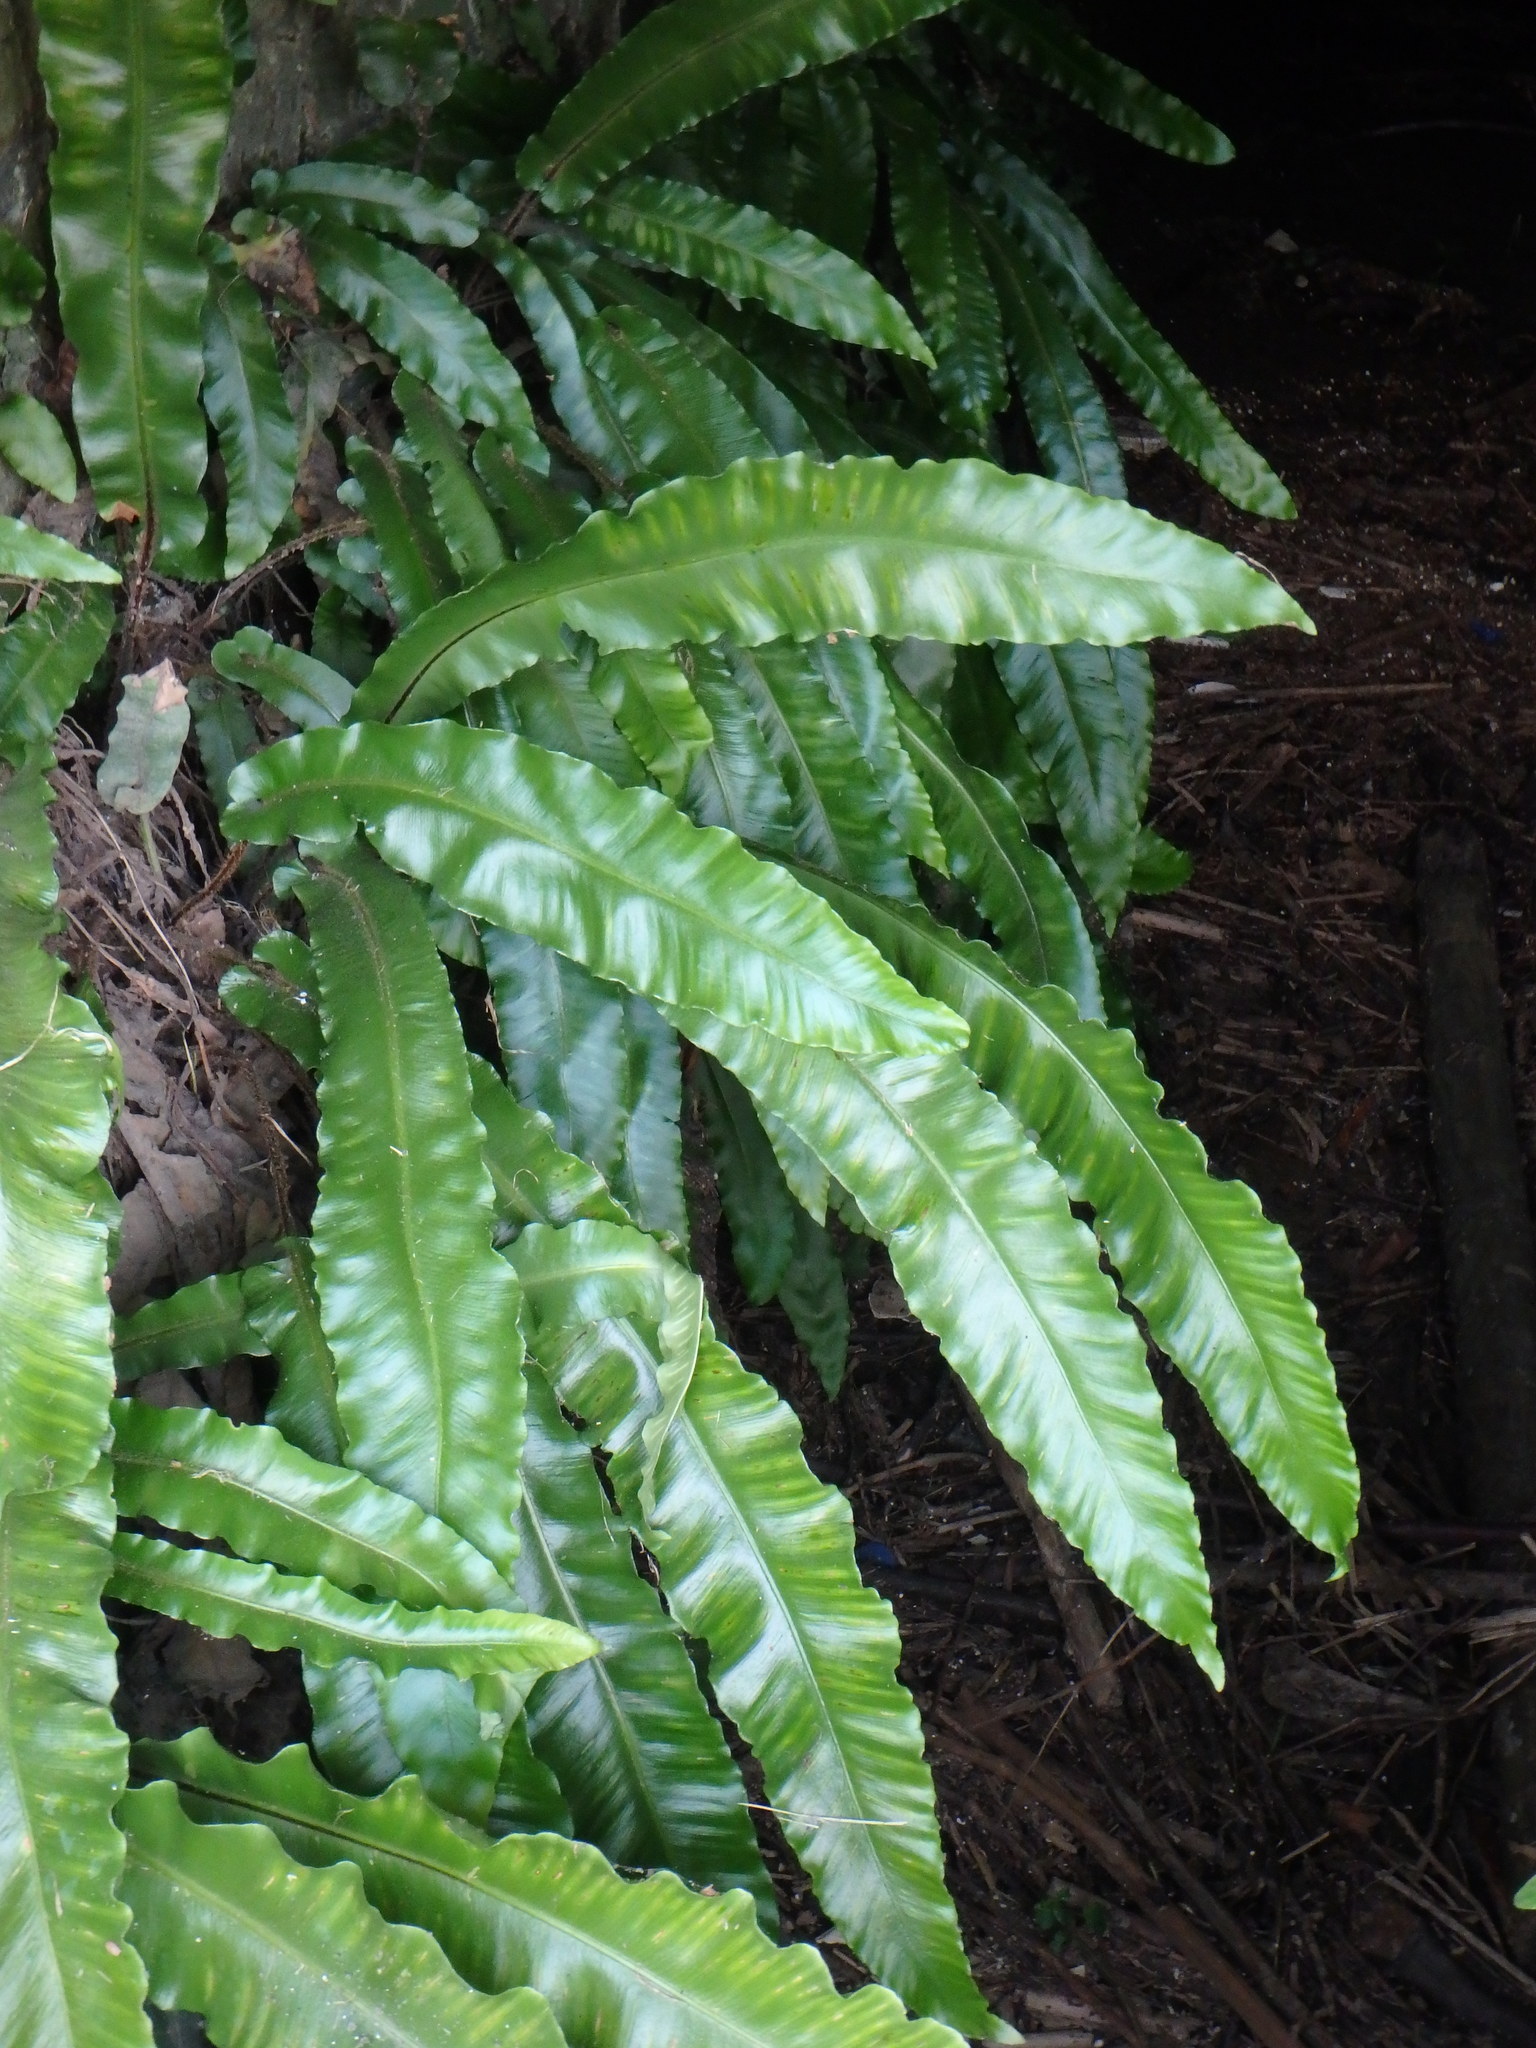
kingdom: Plantae
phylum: Tracheophyta
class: Polypodiopsida
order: Polypodiales
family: Aspleniaceae
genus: Asplenium
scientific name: Asplenium scolopendrium
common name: Hart's-tongue fern
